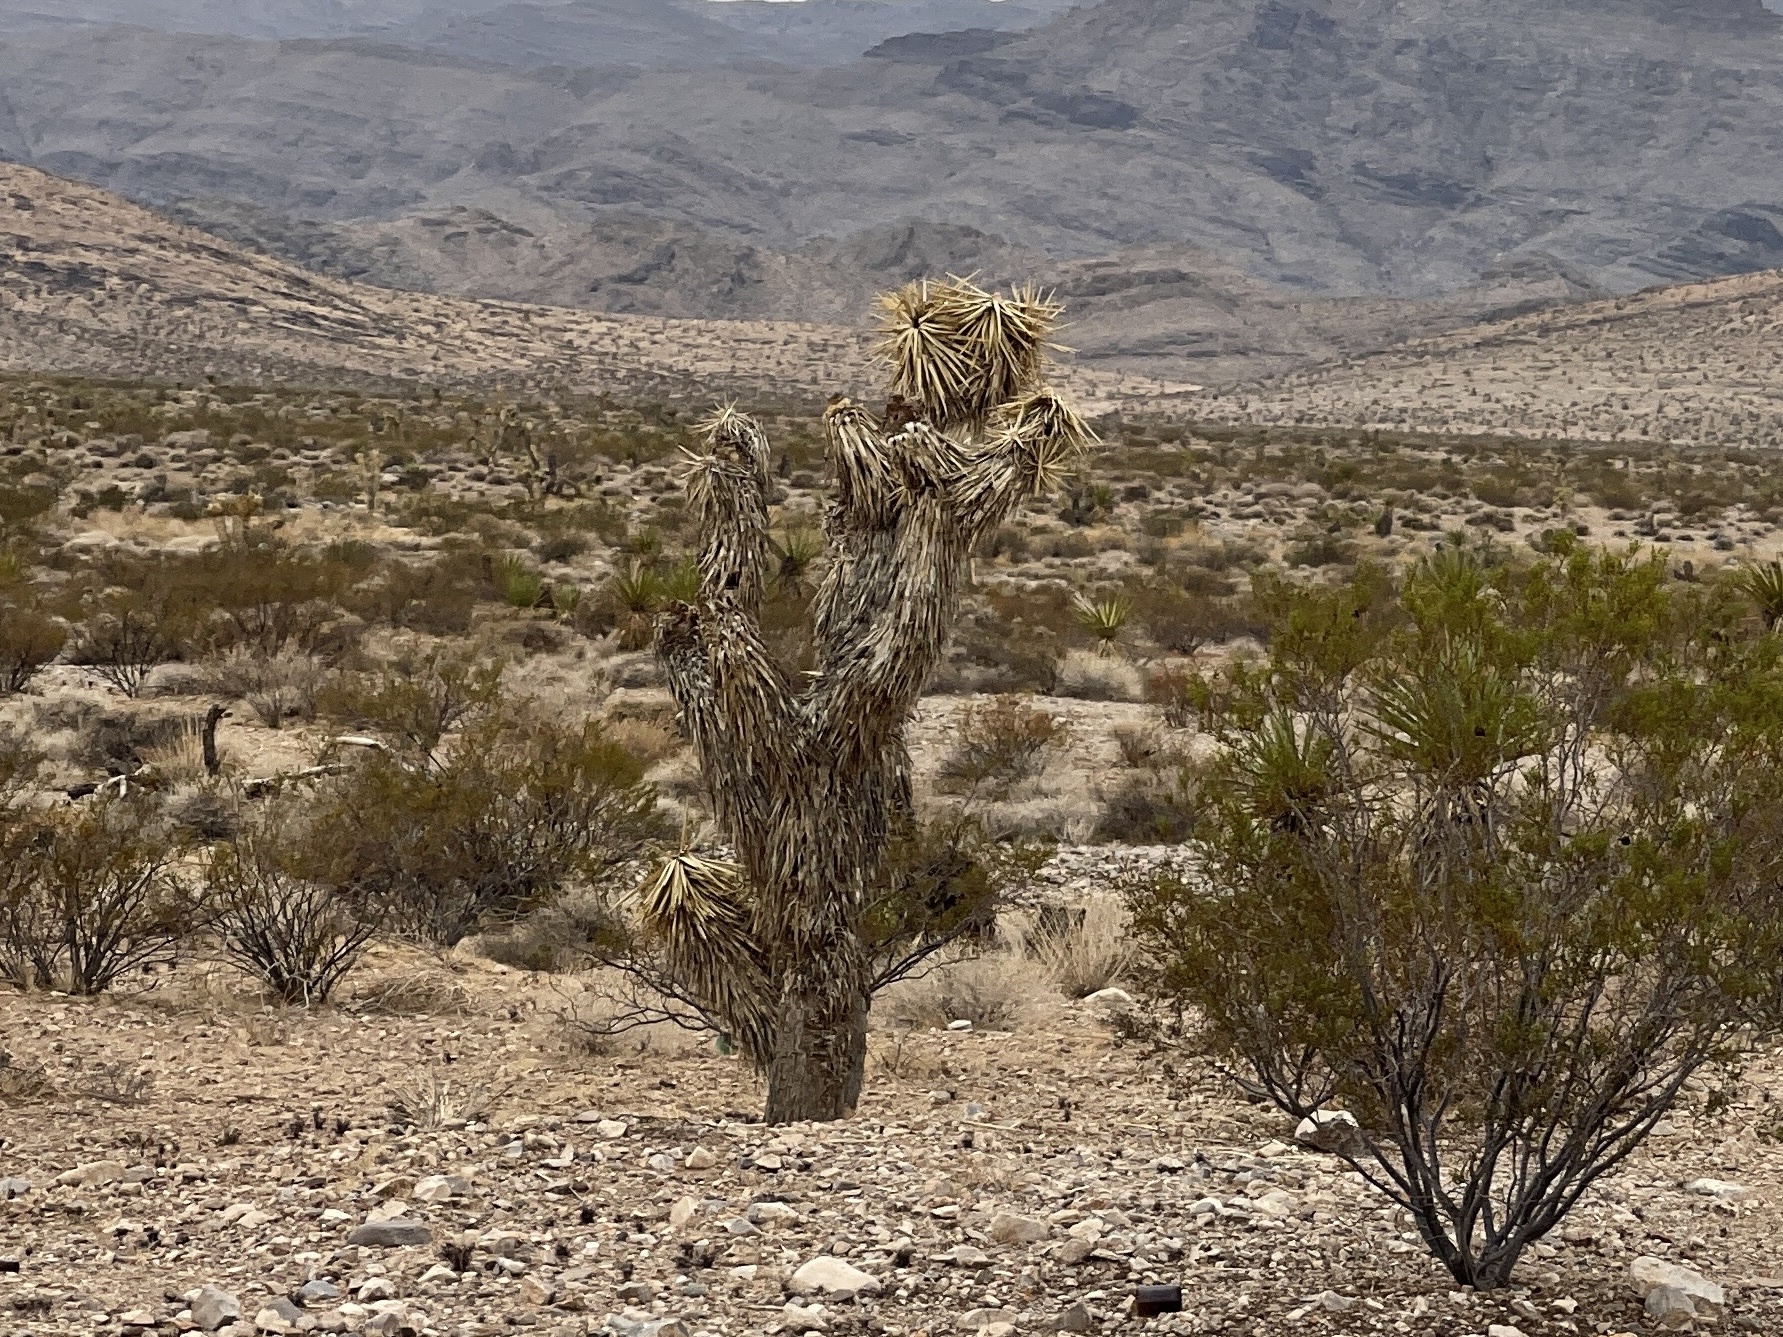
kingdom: Plantae
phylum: Tracheophyta
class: Liliopsida
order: Asparagales
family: Asparagaceae
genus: Yucca
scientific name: Yucca brevifolia
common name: Joshua tree
